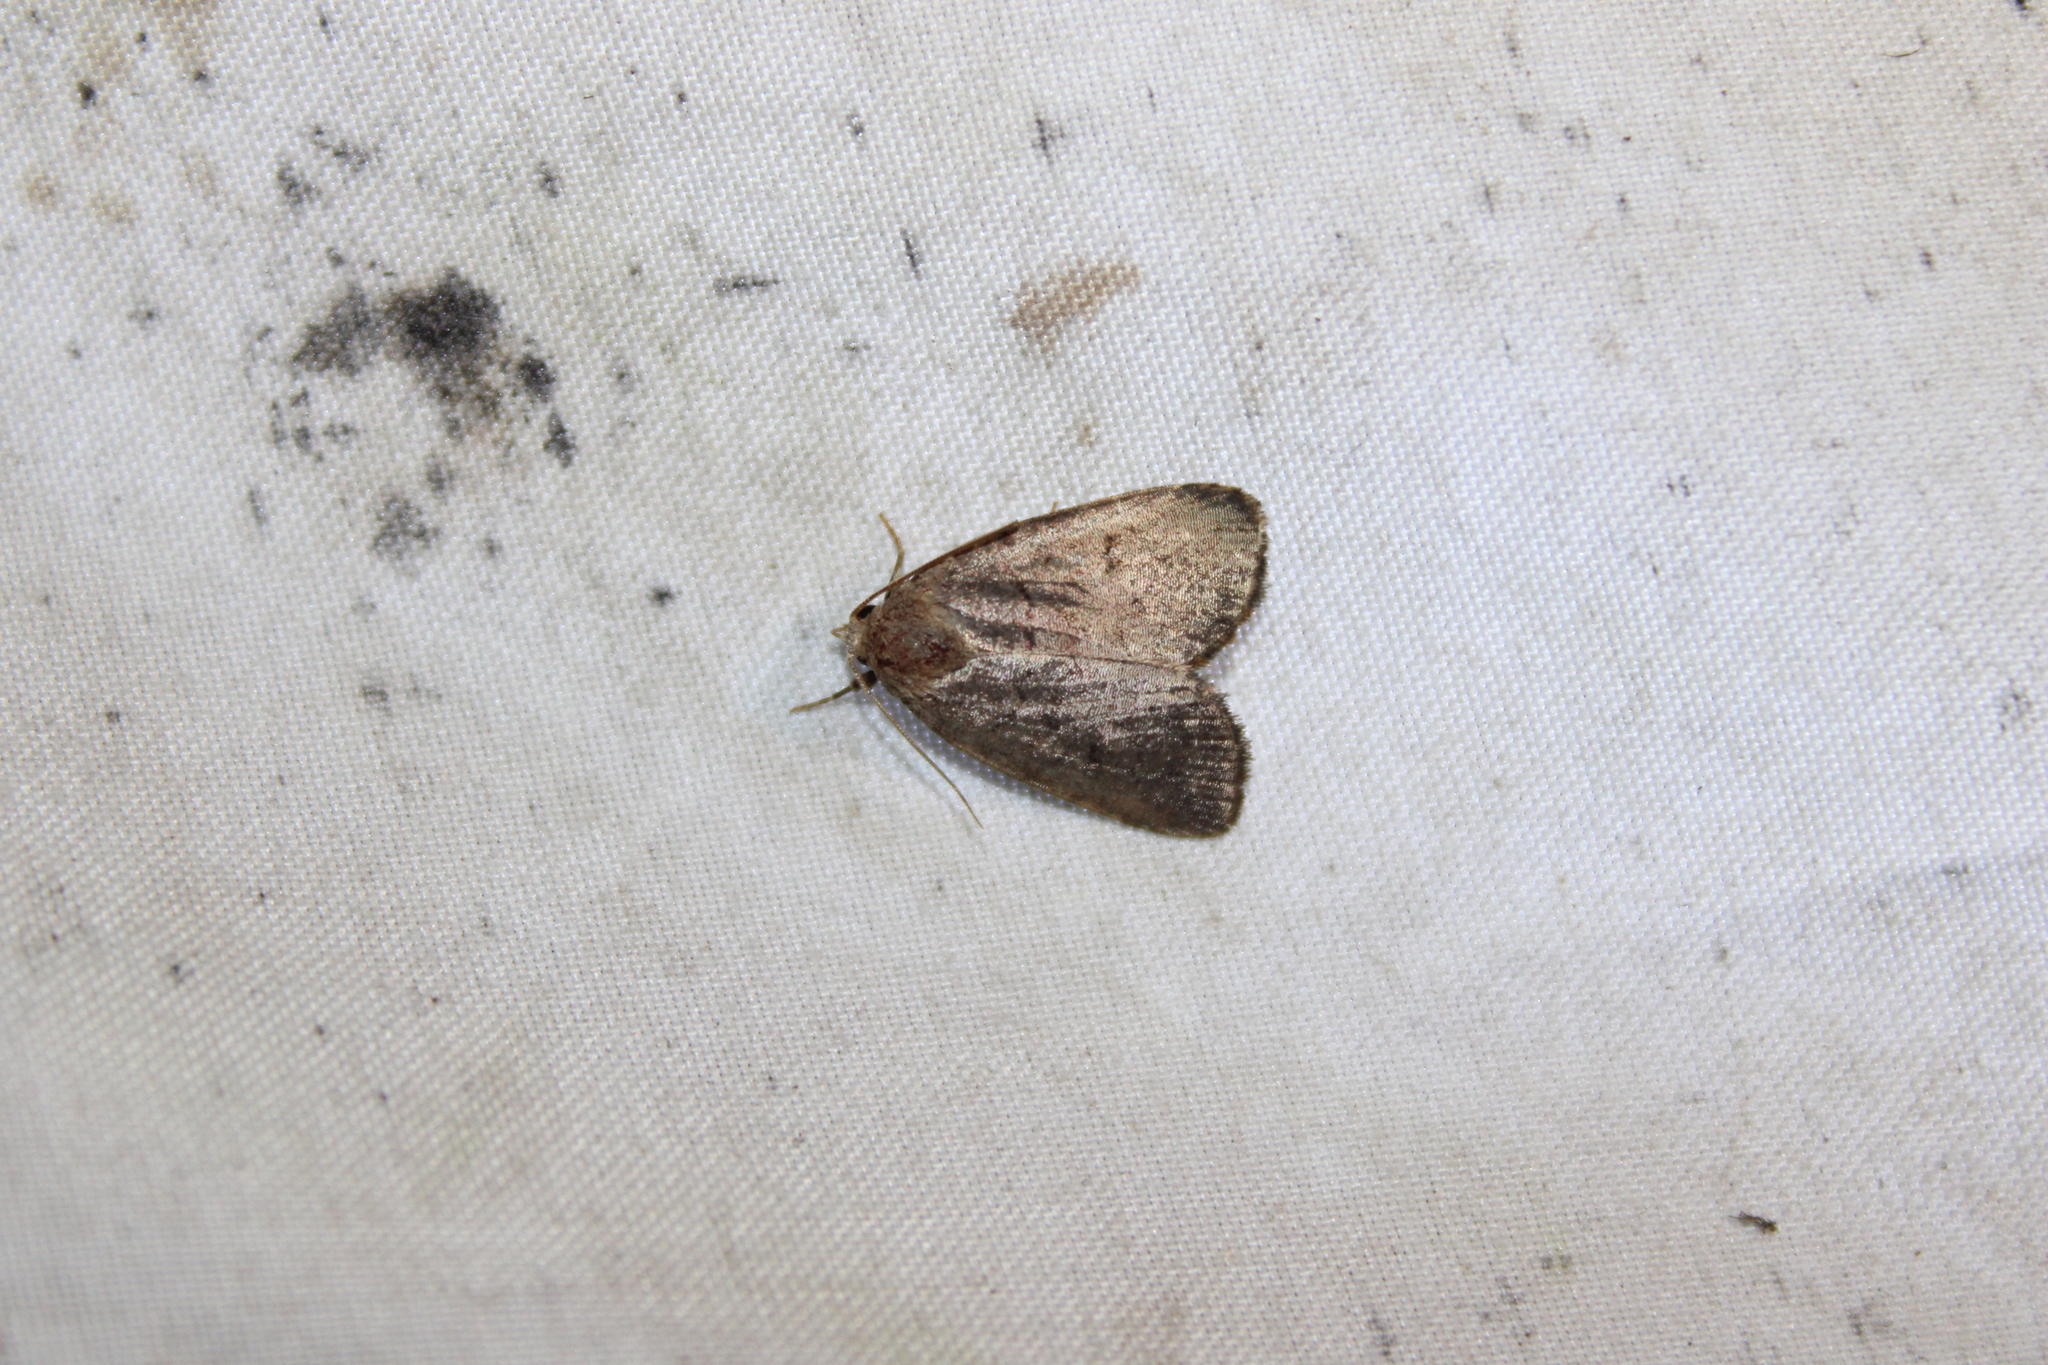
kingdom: Animalia
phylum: Arthropoda
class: Insecta
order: Lepidoptera
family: Noctuidae
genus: Athetis
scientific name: Athetis tarda
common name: Slowpoke moth
